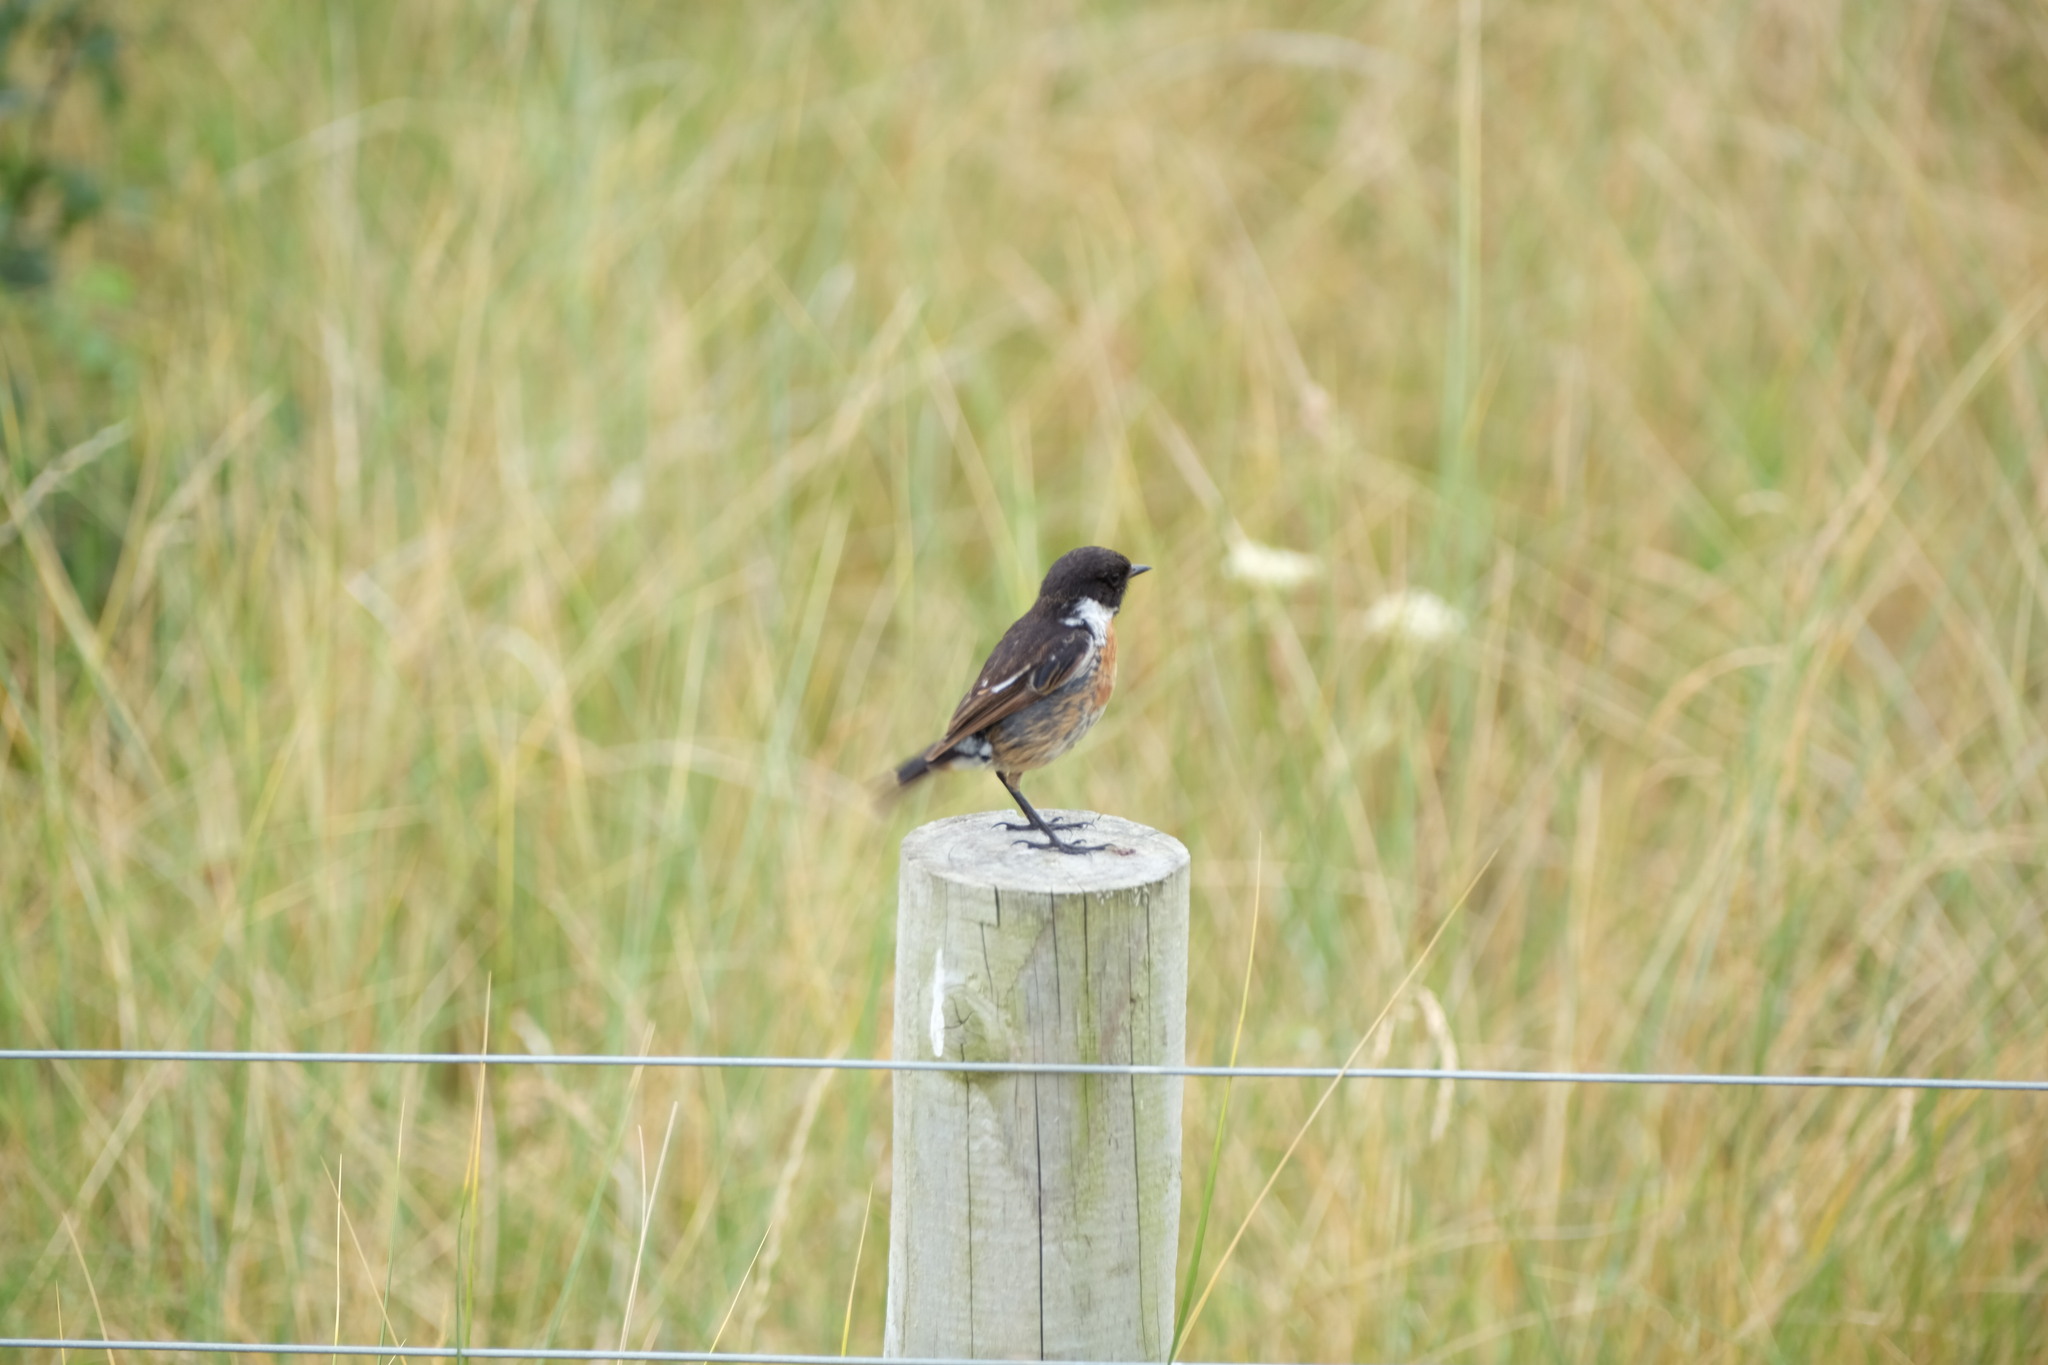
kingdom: Animalia
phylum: Chordata
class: Aves
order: Passeriformes
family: Muscicapidae
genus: Saxicola
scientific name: Saxicola rubicola
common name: European stonechat
